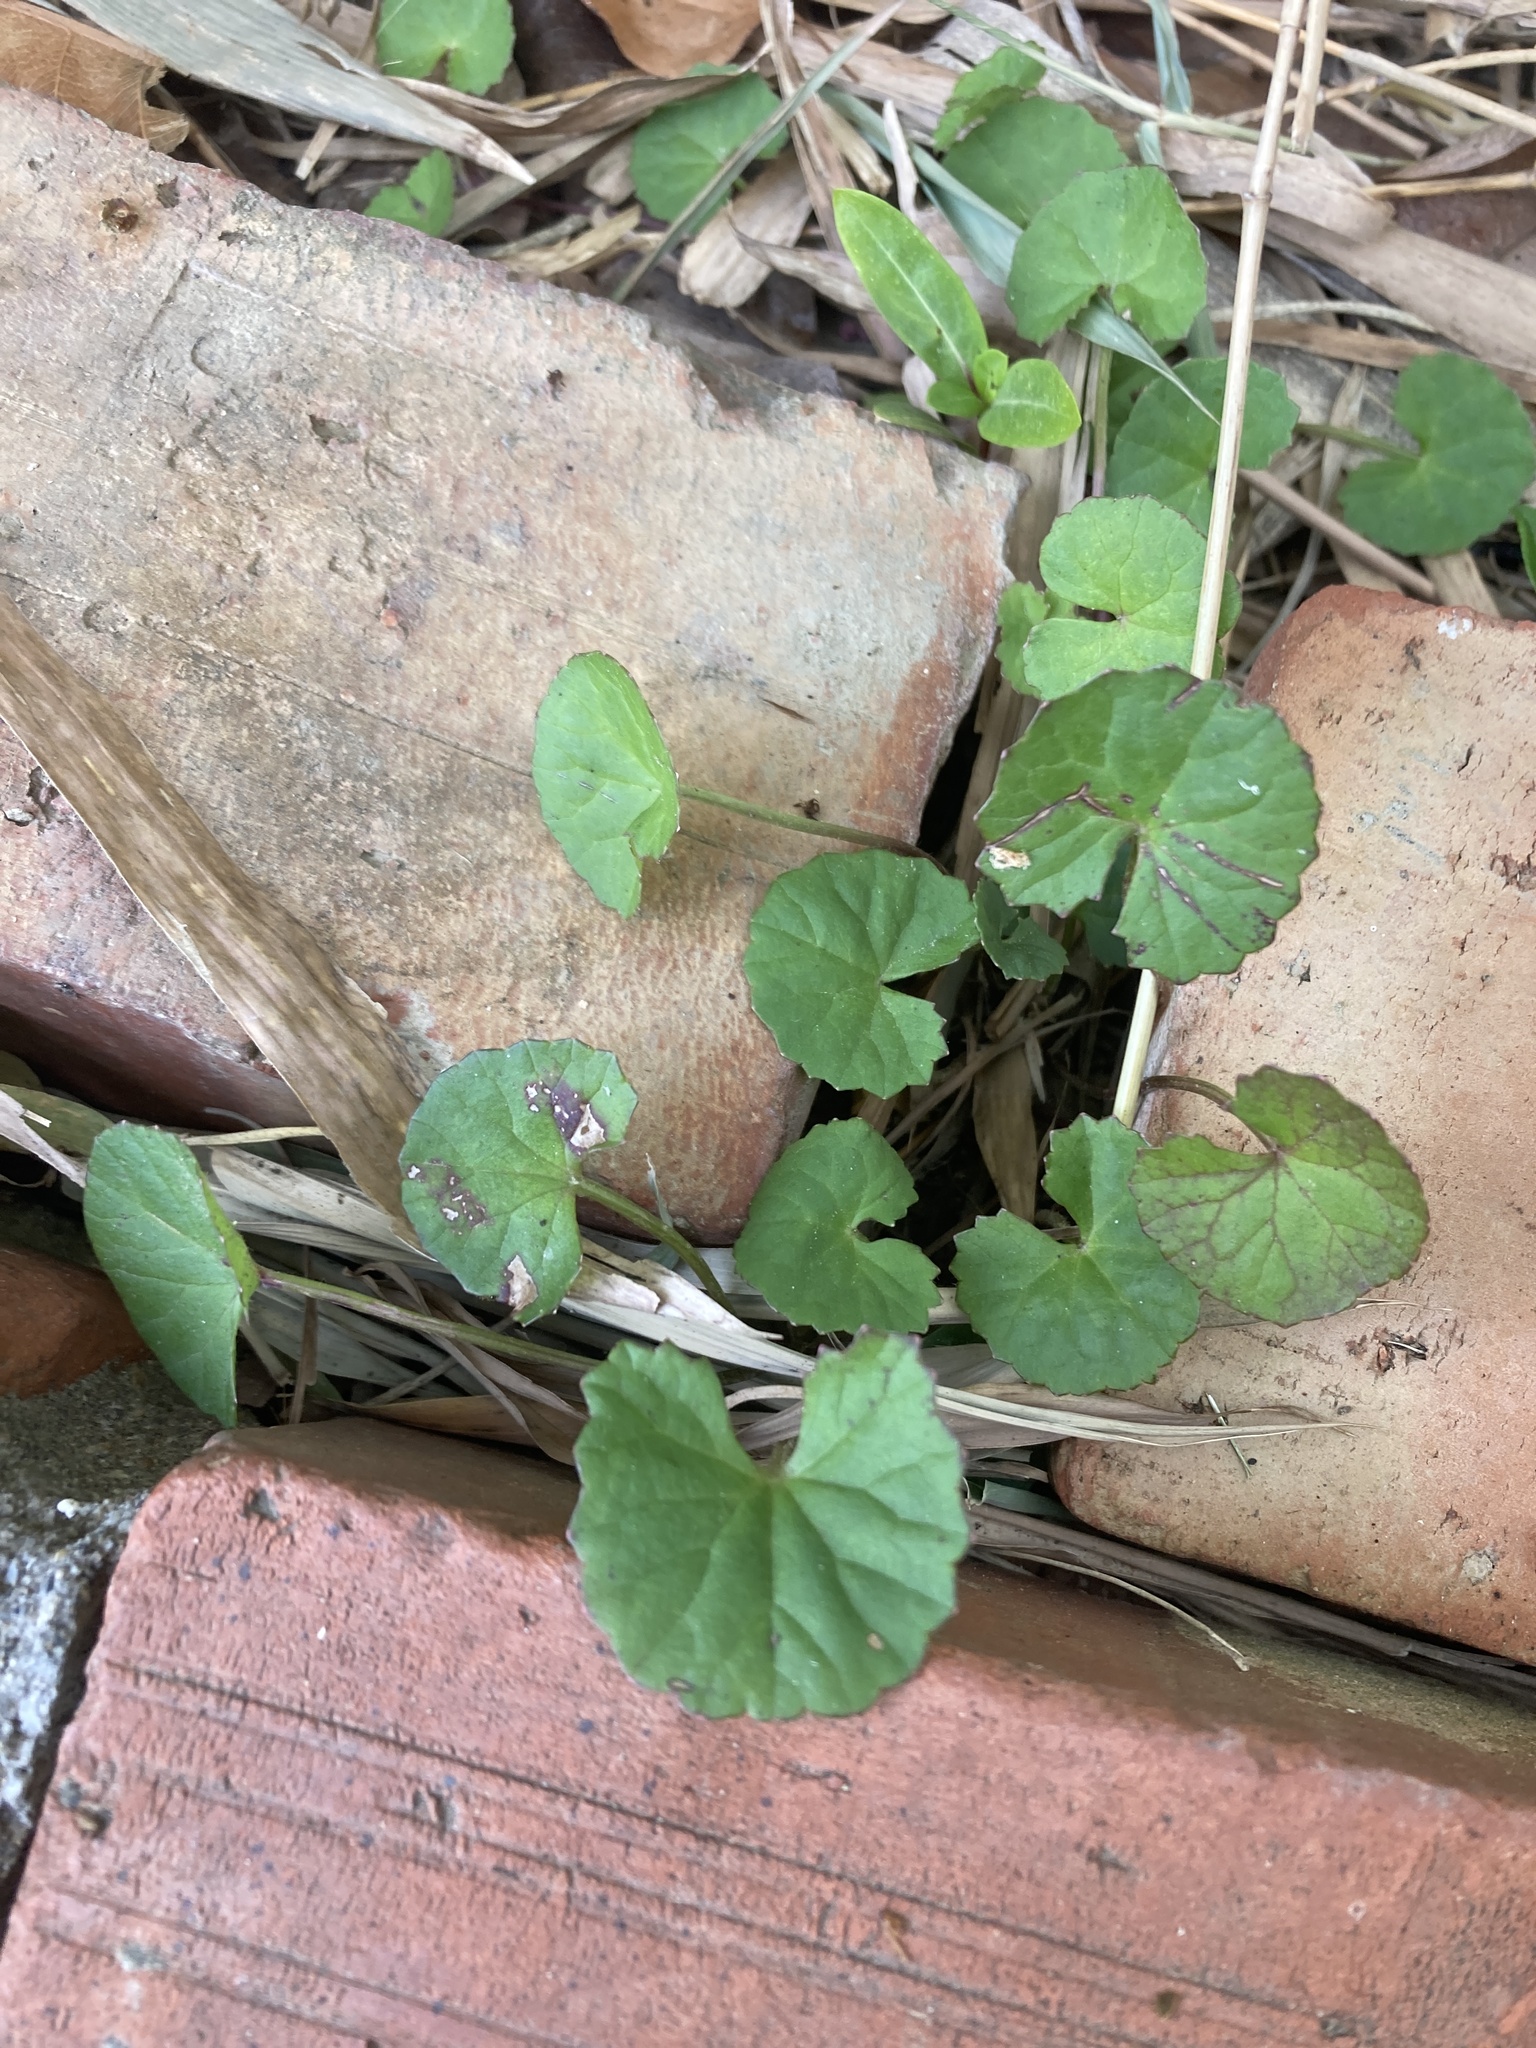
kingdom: Plantae
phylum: Tracheophyta
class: Magnoliopsida
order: Apiales
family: Apiaceae
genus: Centella
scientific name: Centella asiatica
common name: Spadeleaf
